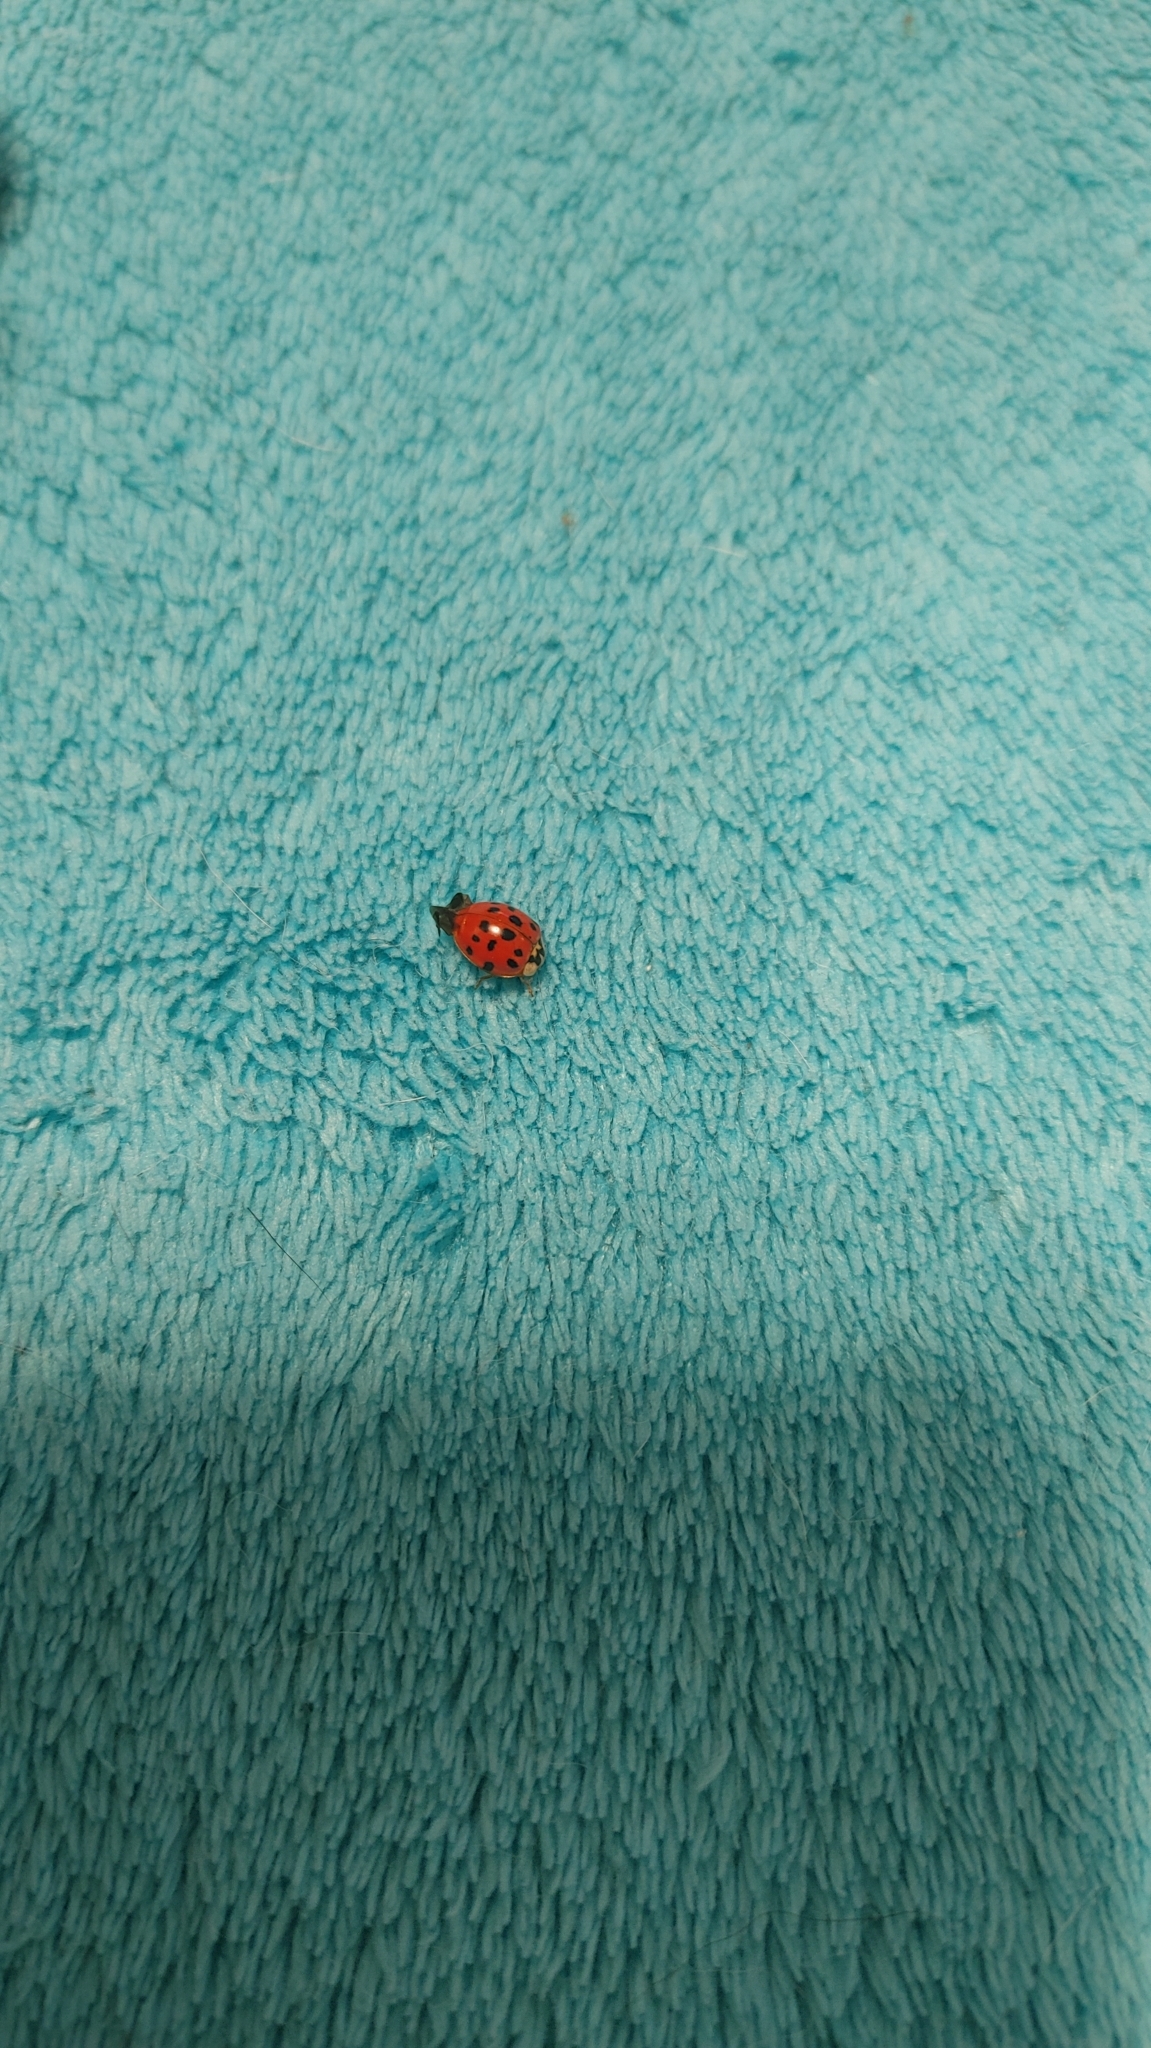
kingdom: Animalia
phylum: Arthropoda
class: Insecta
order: Coleoptera
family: Coccinellidae
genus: Harmonia
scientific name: Harmonia axyridis
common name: Harlequin ladybird
